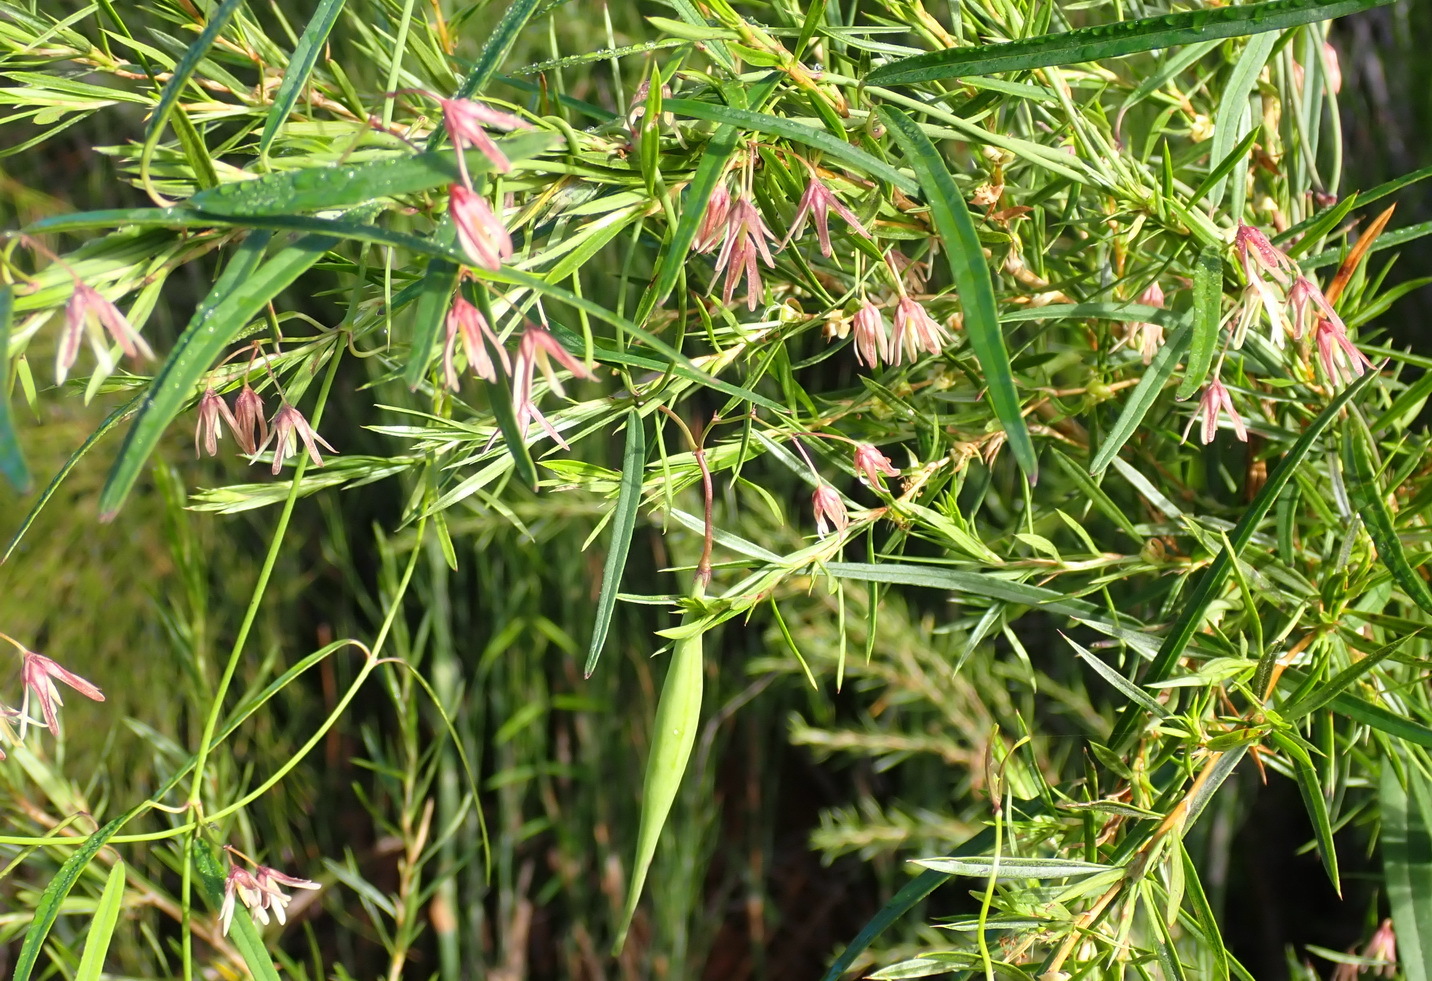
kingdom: Plantae
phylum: Tracheophyta
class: Magnoliopsida
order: Gentianales
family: Apocynaceae
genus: Oncinema
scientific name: Oncinema lineare
